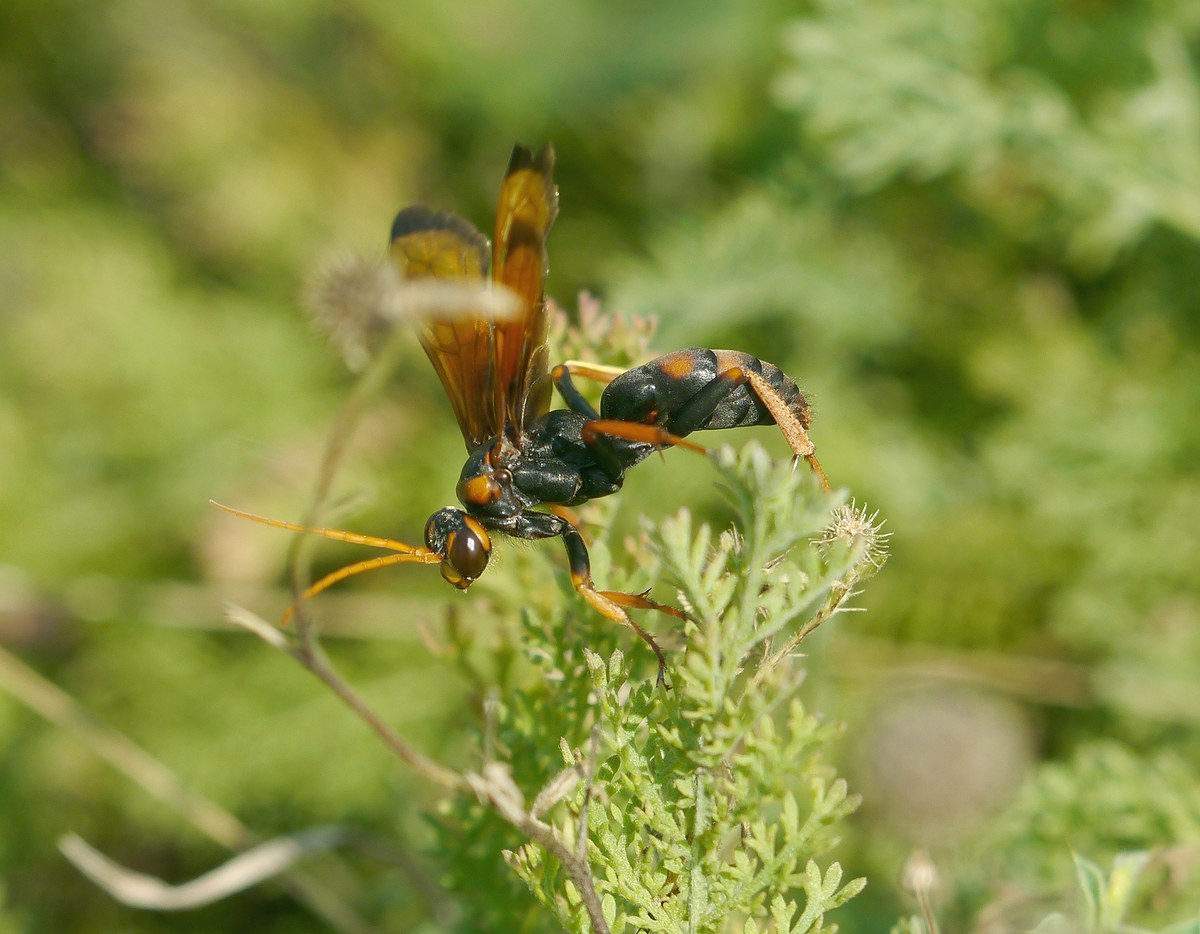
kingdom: Animalia
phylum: Arthropoda
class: Insecta
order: Hymenoptera
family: Pompilidae
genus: Cryptocheilus
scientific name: Cryptocheilus rubellus
